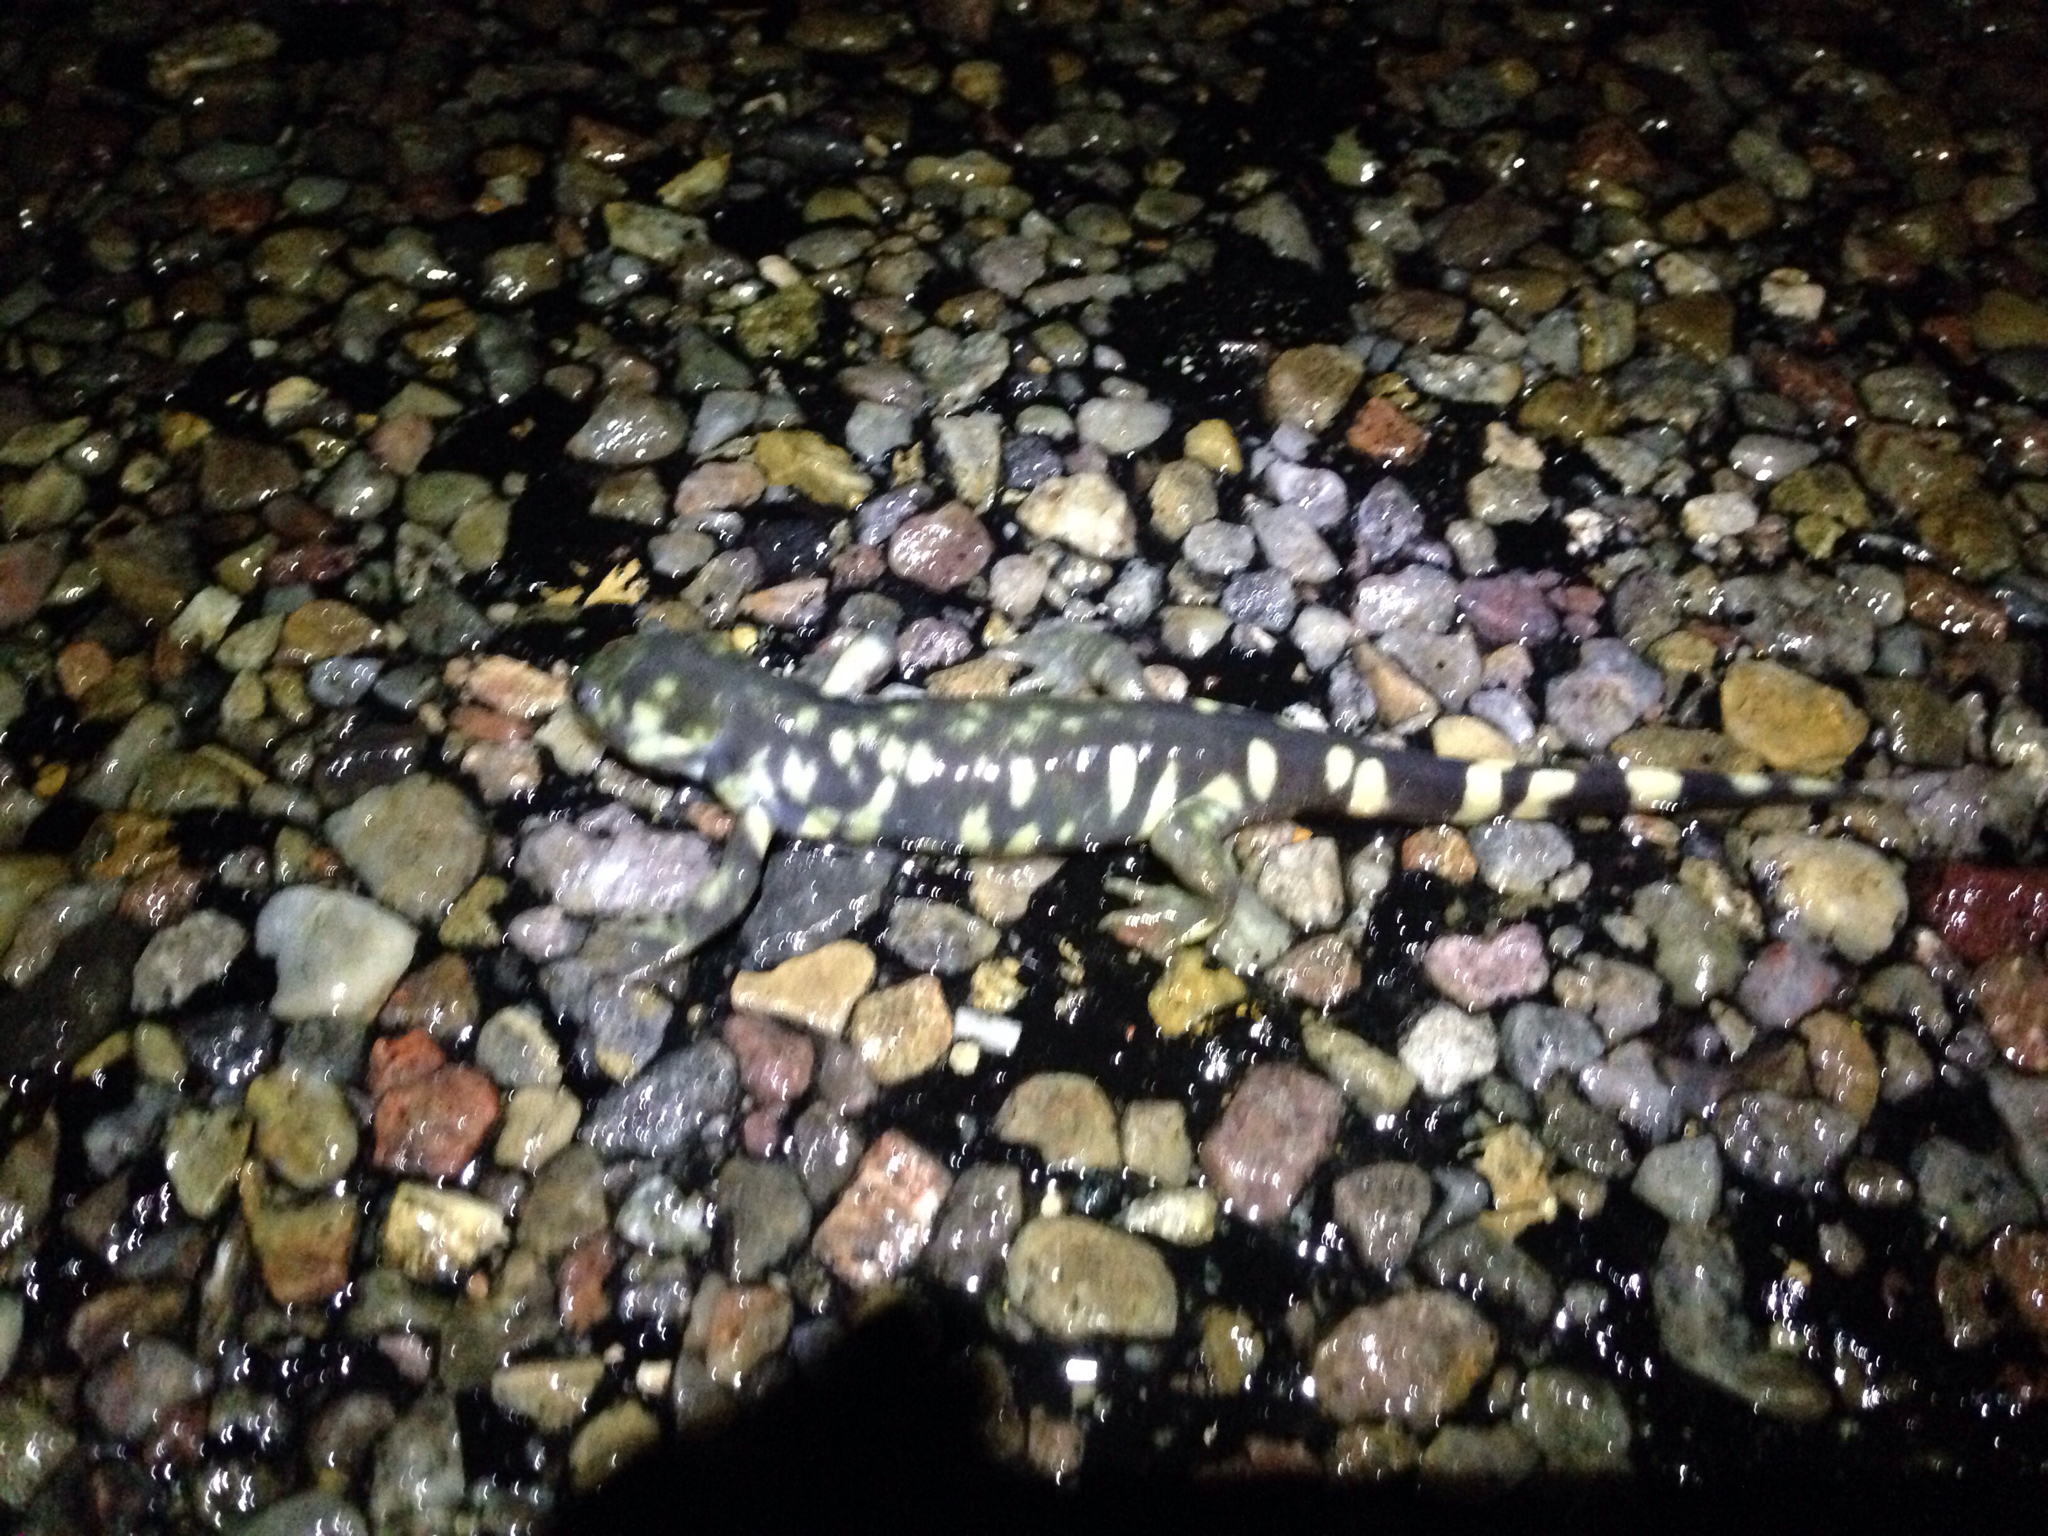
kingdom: Animalia
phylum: Chordata
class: Amphibia
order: Caudata
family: Ambystomatidae
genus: Ambystoma
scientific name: Ambystoma mavortium
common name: Western tiger salamander
